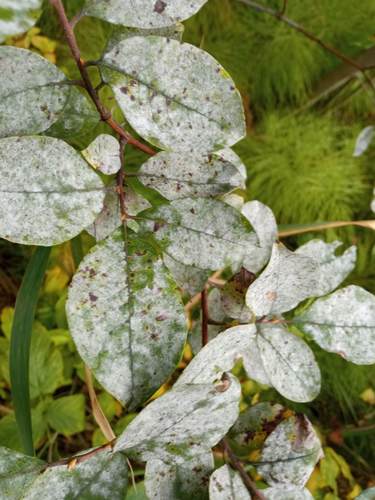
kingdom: Fungi
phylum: Ascomycota
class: Leotiomycetes
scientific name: Leotiomycetes
